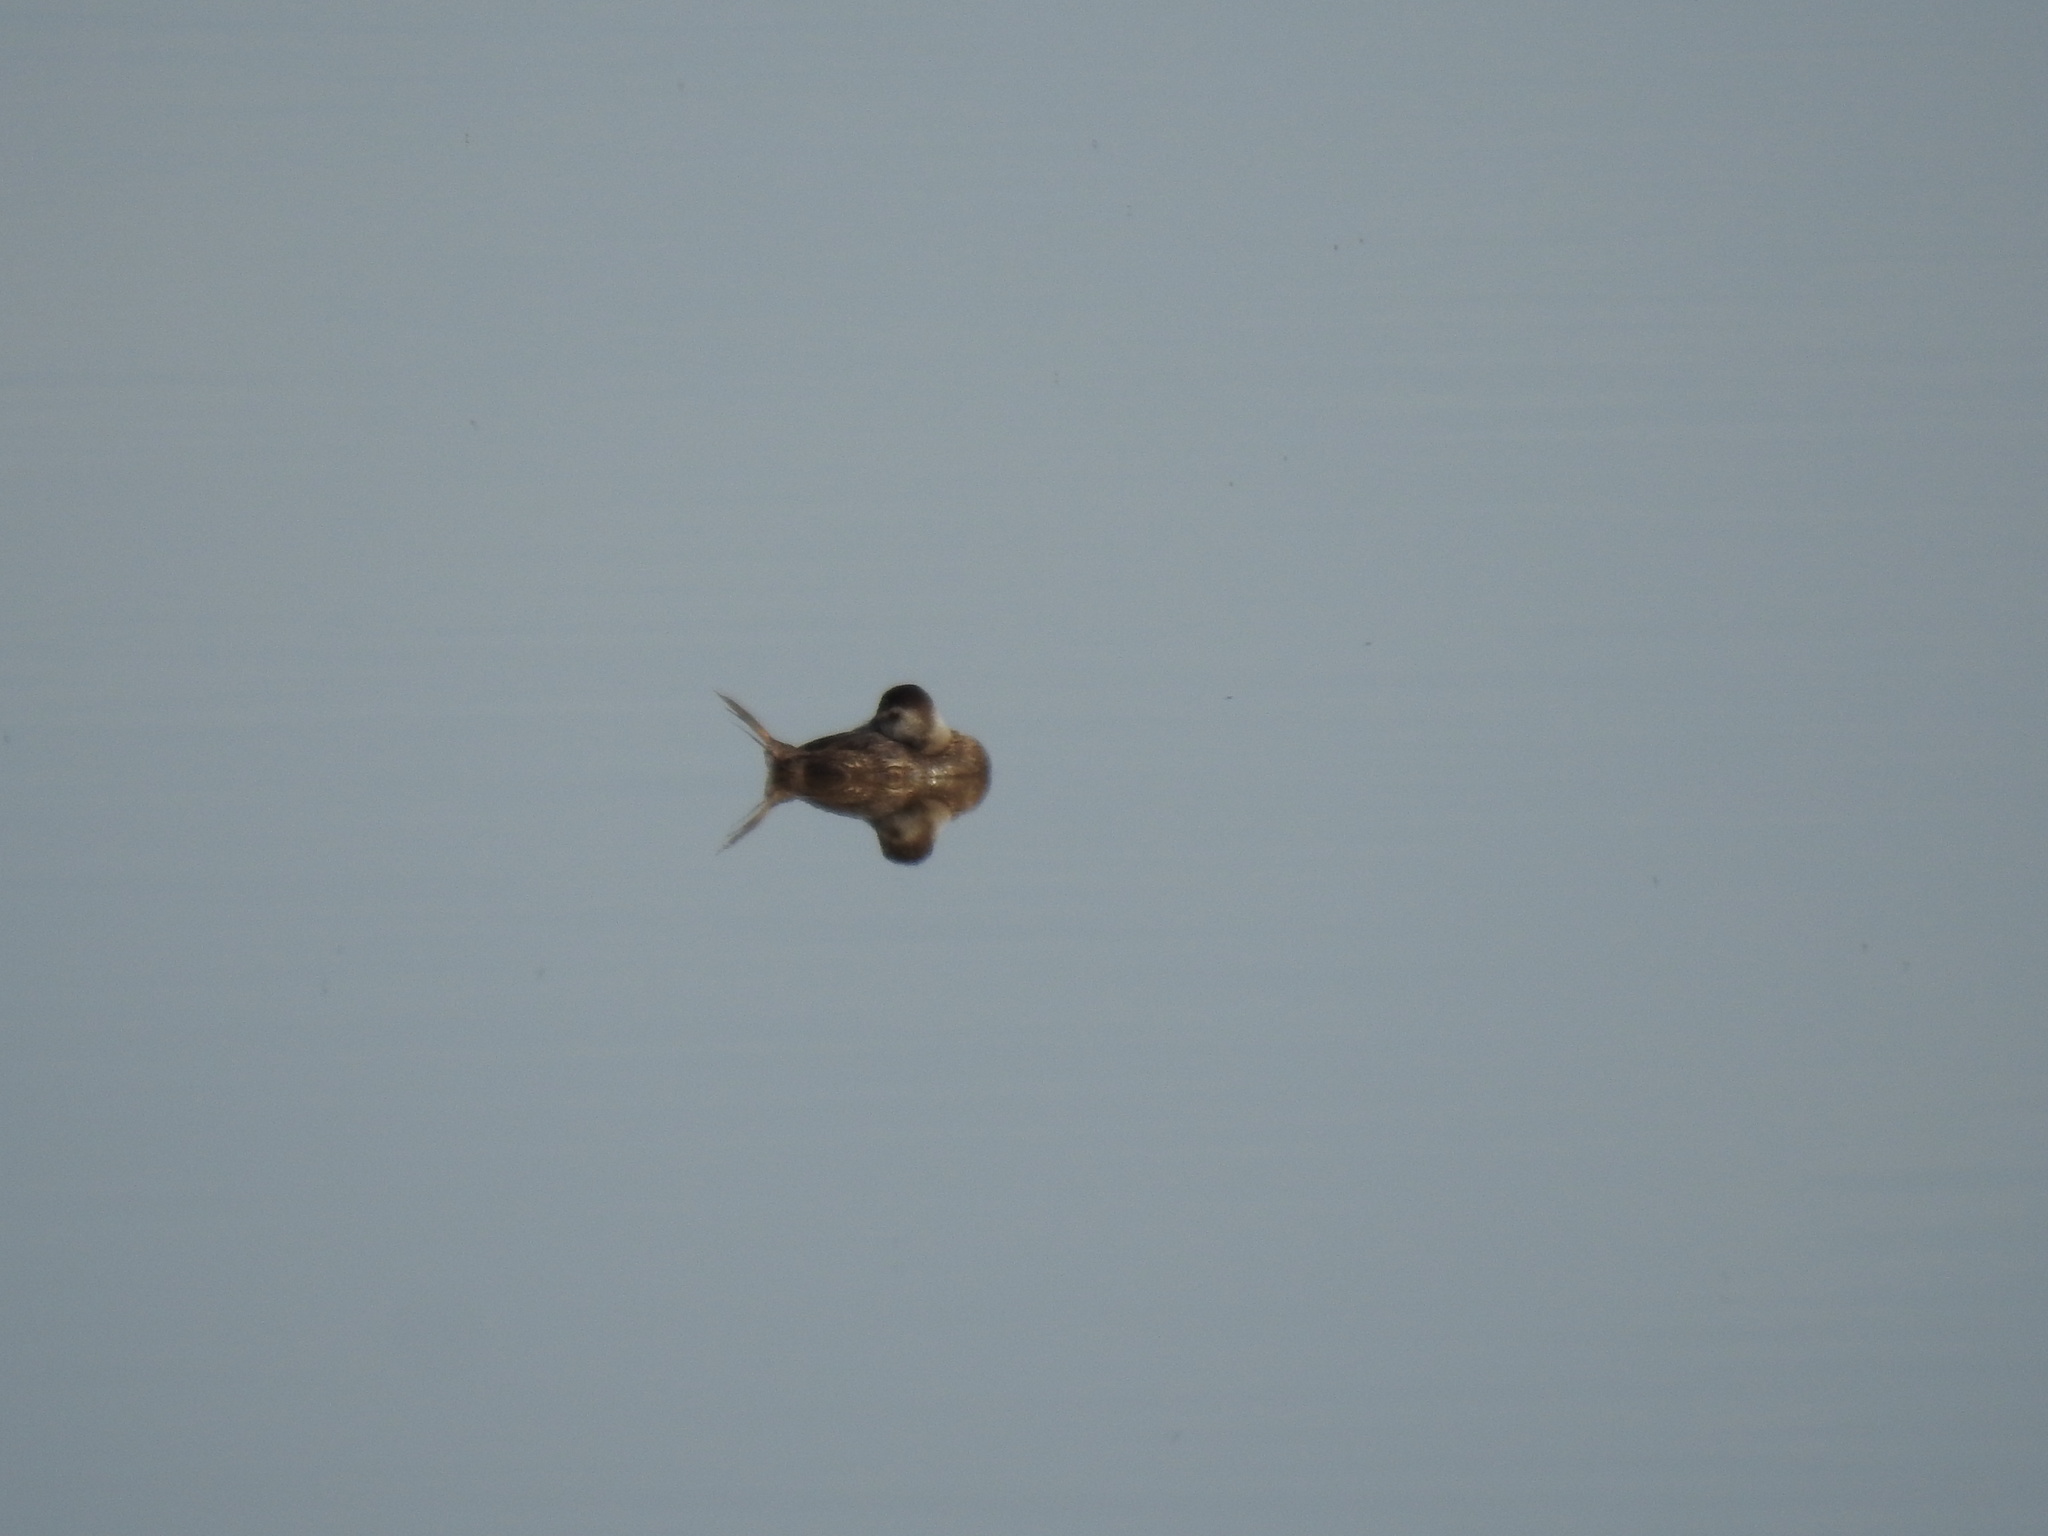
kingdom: Animalia
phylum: Chordata
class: Aves
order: Anseriformes
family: Anatidae
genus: Oxyura
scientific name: Oxyura jamaicensis
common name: Ruddy duck
